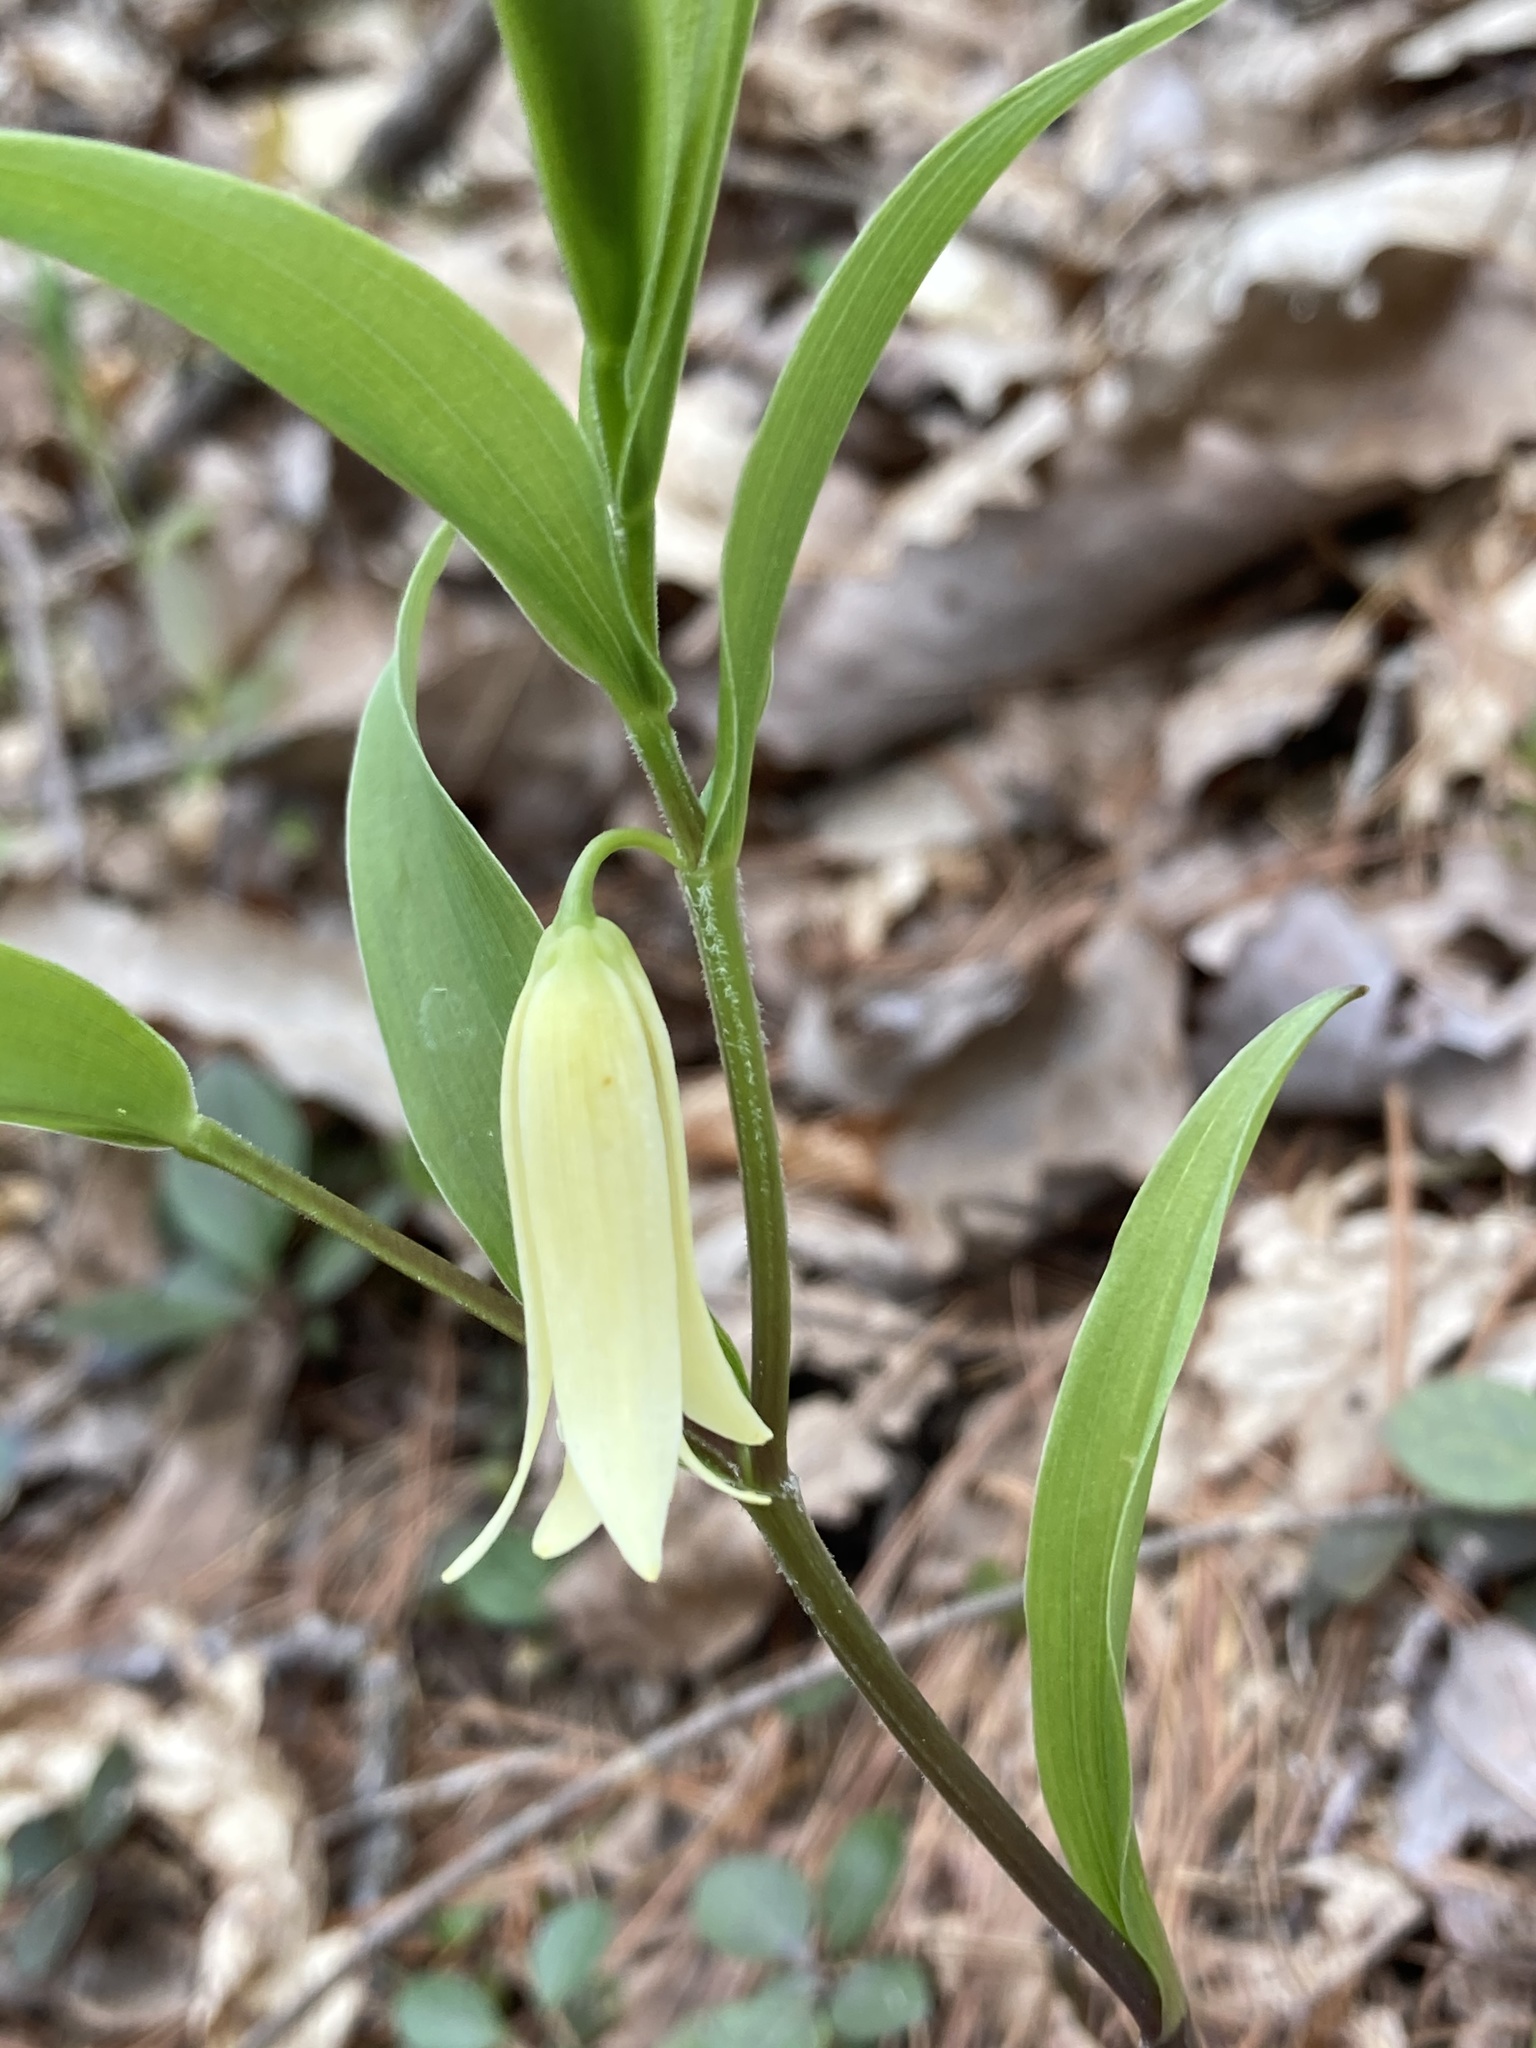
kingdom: Plantae
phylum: Tracheophyta
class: Liliopsida
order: Liliales
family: Colchicaceae
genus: Uvularia
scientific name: Uvularia puberula
